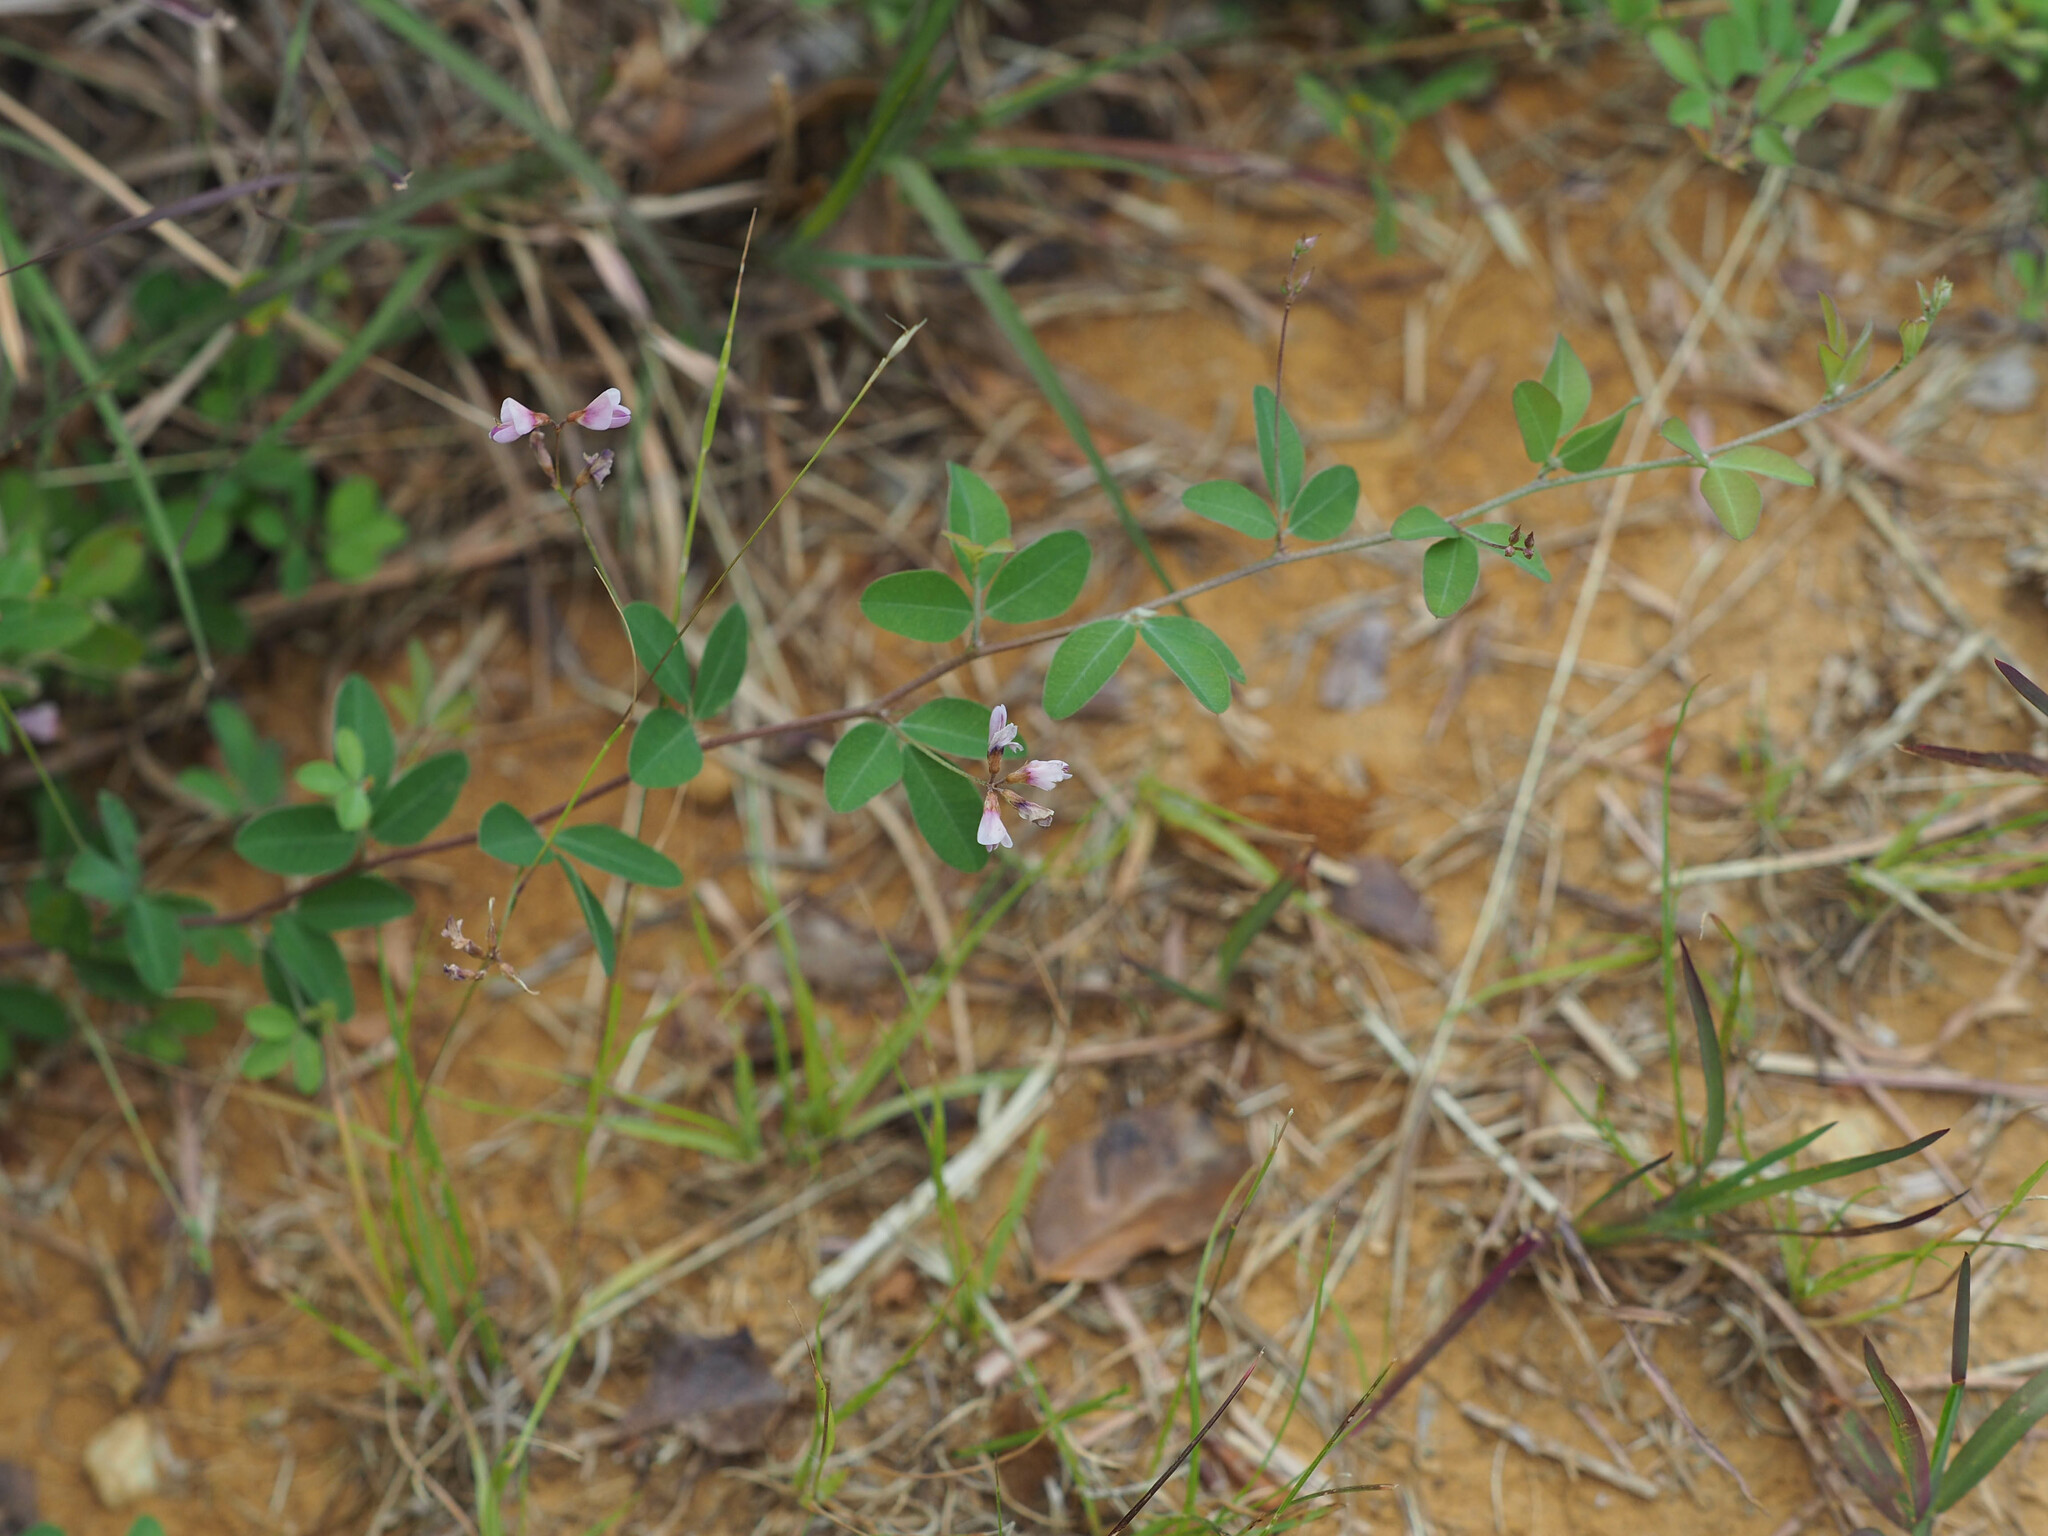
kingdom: Plantae
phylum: Tracheophyta
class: Magnoliopsida
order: Fabales
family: Fabaceae
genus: Lespedeza
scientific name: Lespedeza repens
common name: Creeping bush-clover
